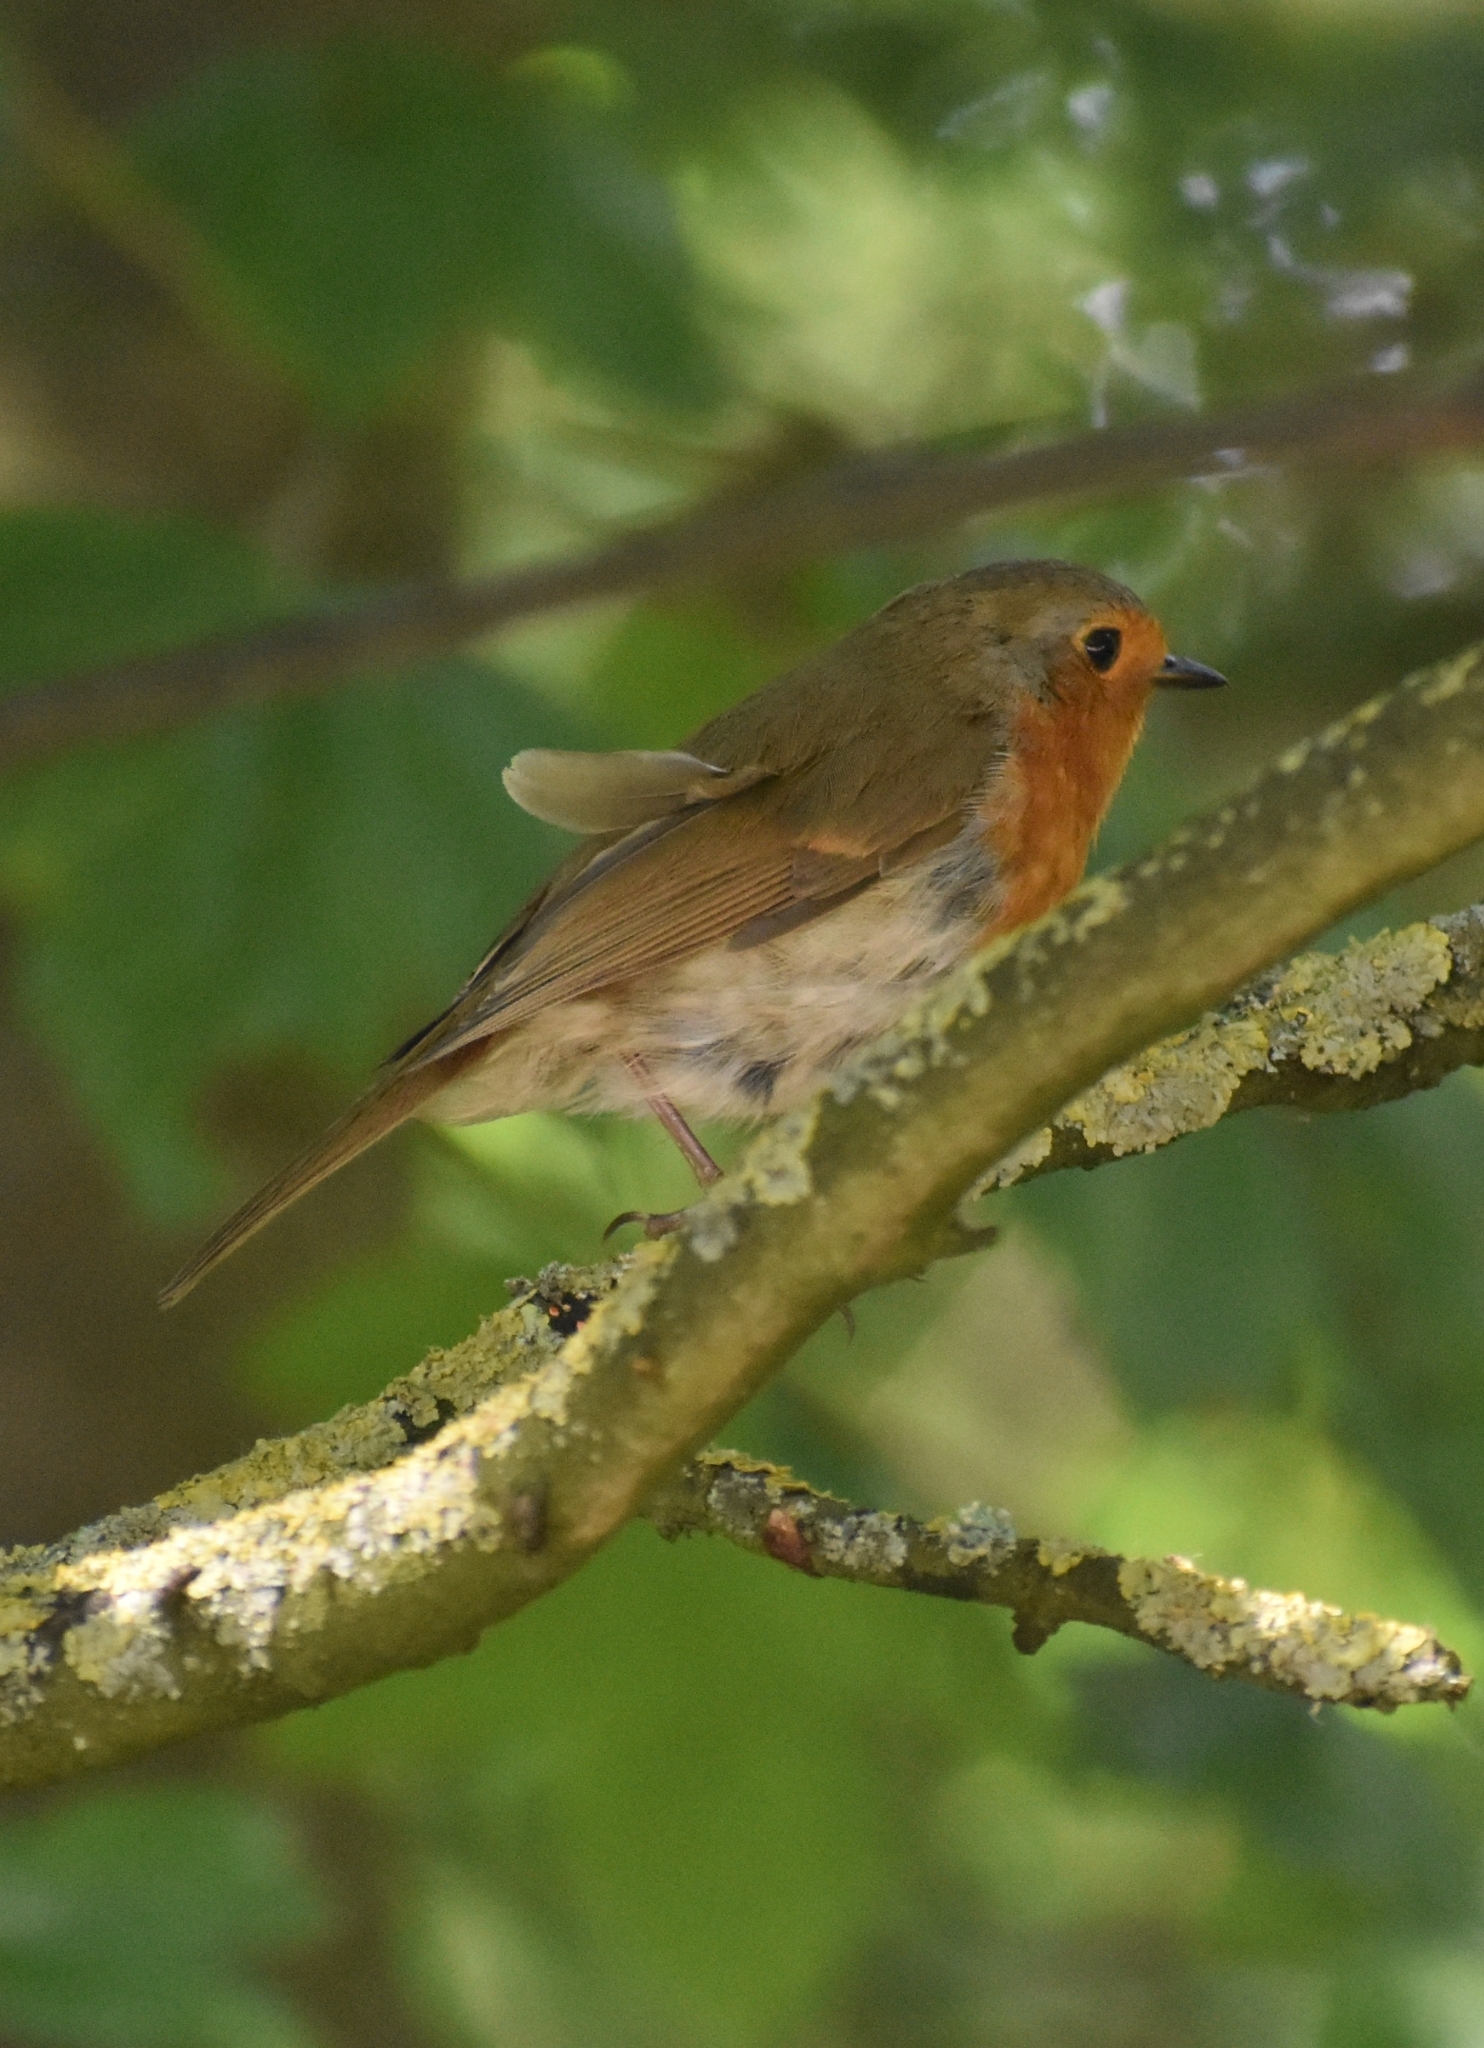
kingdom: Animalia
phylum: Chordata
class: Aves
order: Passeriformes
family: Muscicapidae
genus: Erithacus
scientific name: Erithacus rubecula
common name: European robin
